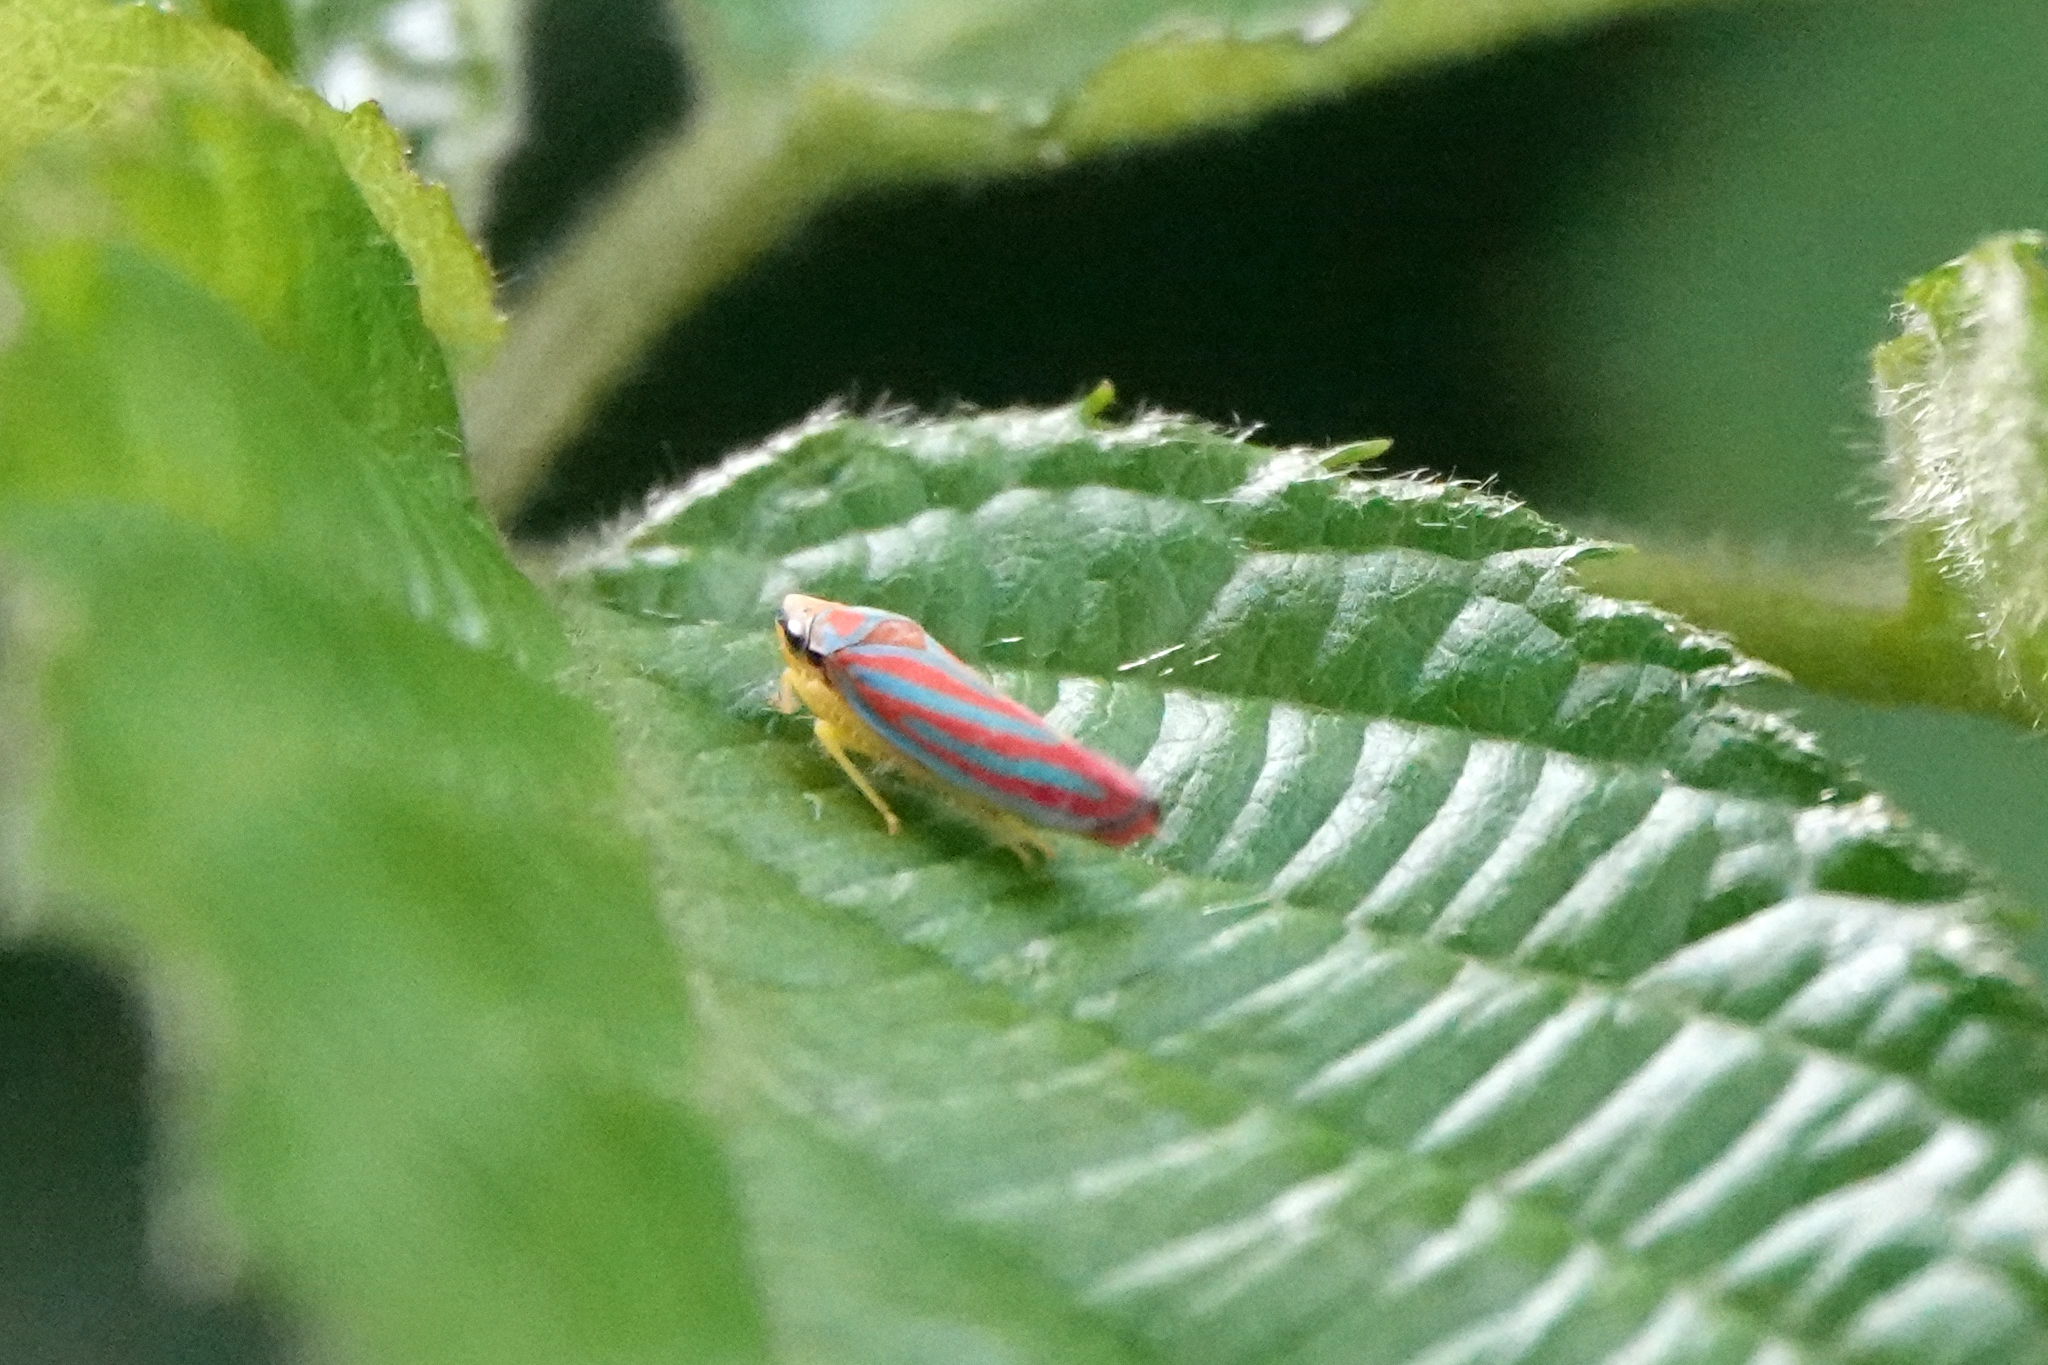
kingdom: Animalia
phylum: Arthropoda
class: Insecta
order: Hemiptera
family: Cicadellidae
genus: Graphocephala
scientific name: Graphocephala coccinea
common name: Candy-striped leafhopper
